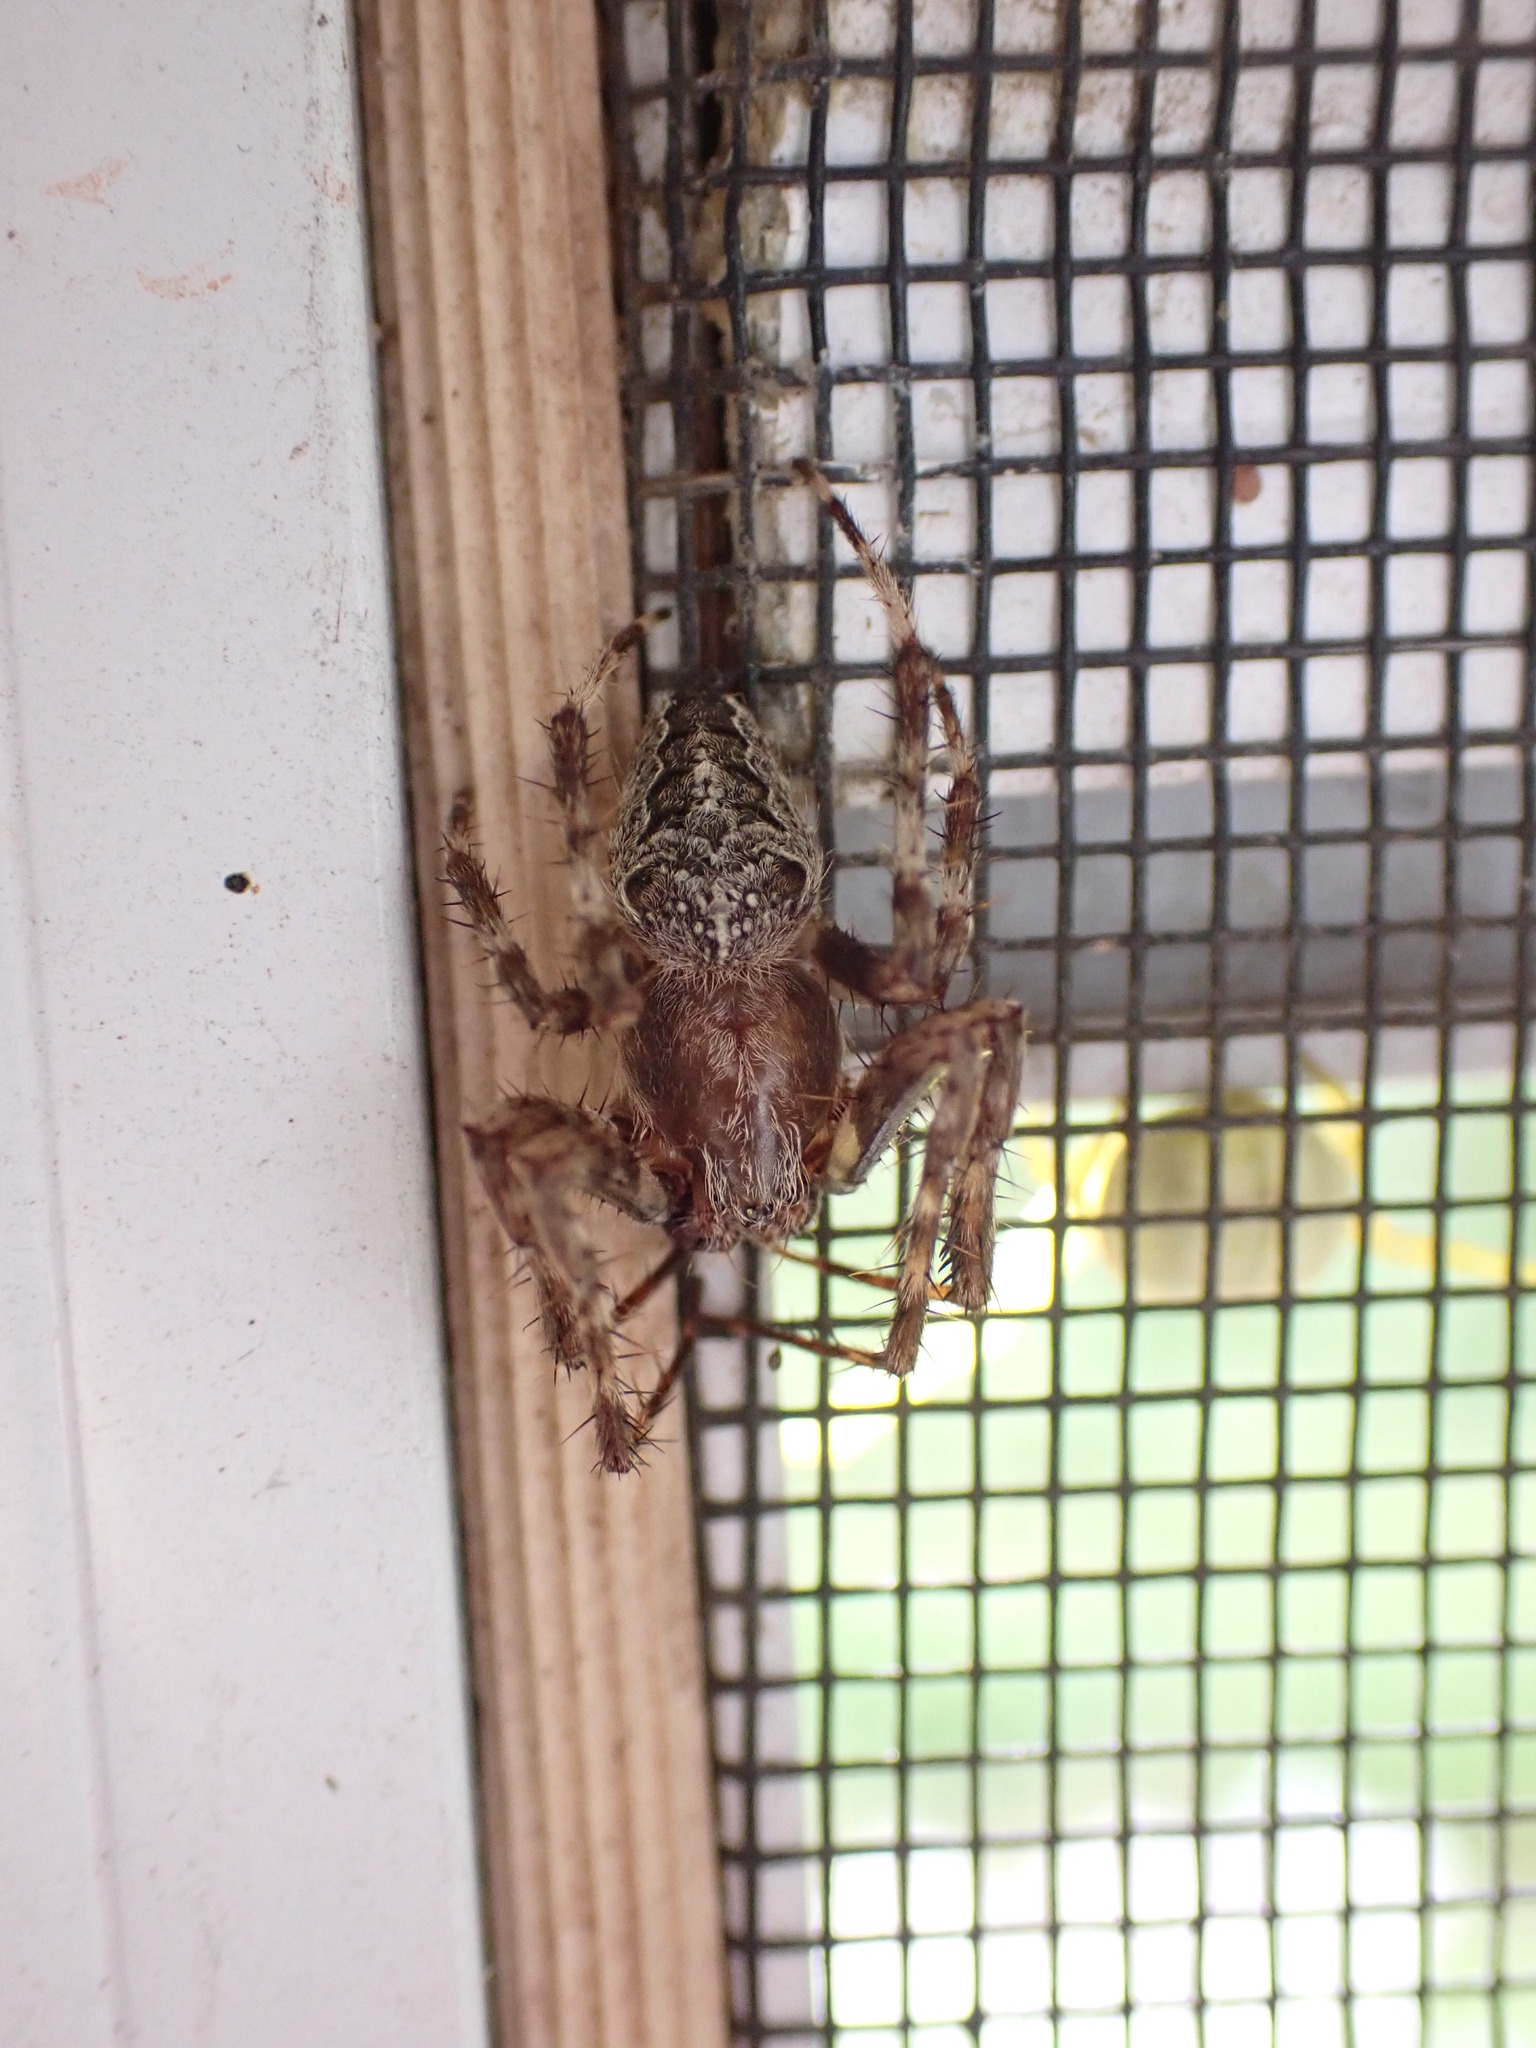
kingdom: Animalia
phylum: Arthropoda
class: Arachnida
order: Araneae
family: Araneidae
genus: Araneus
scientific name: Araneus nordmanni
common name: Nordmann's orbweaver
